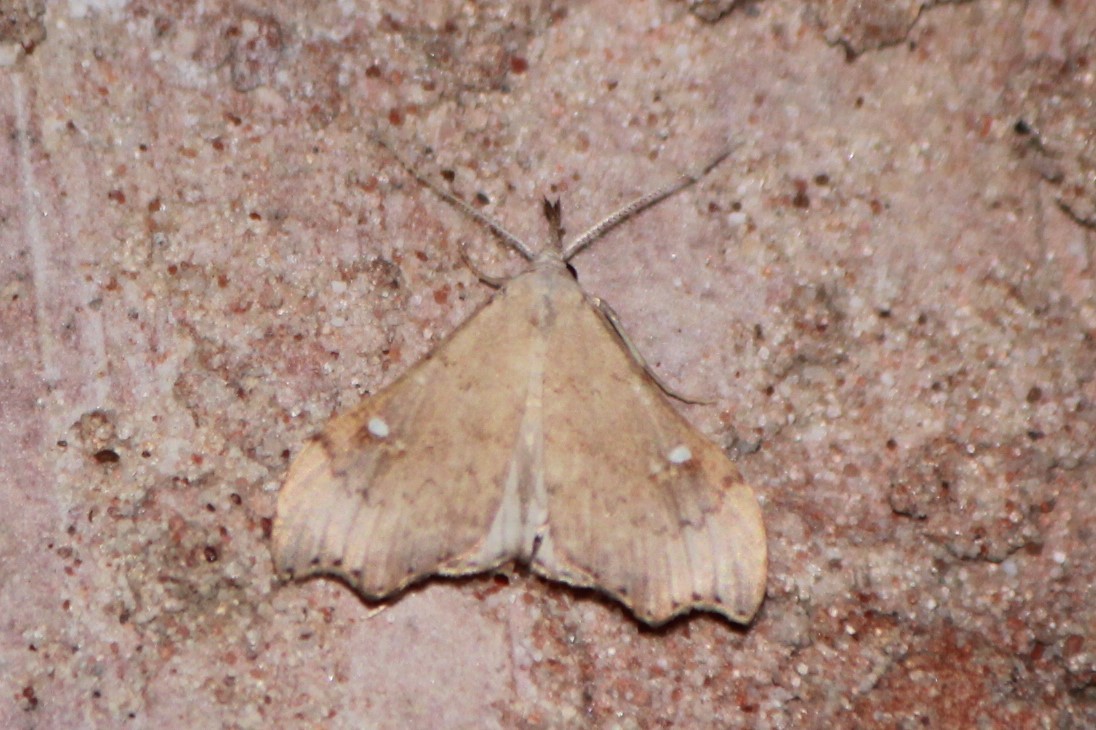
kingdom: Animalia
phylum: Arthropoda
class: Insecta
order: Lepidoptera
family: Erebidae
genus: Redectis
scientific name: Redectis vitrea
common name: White-spotted redectis
